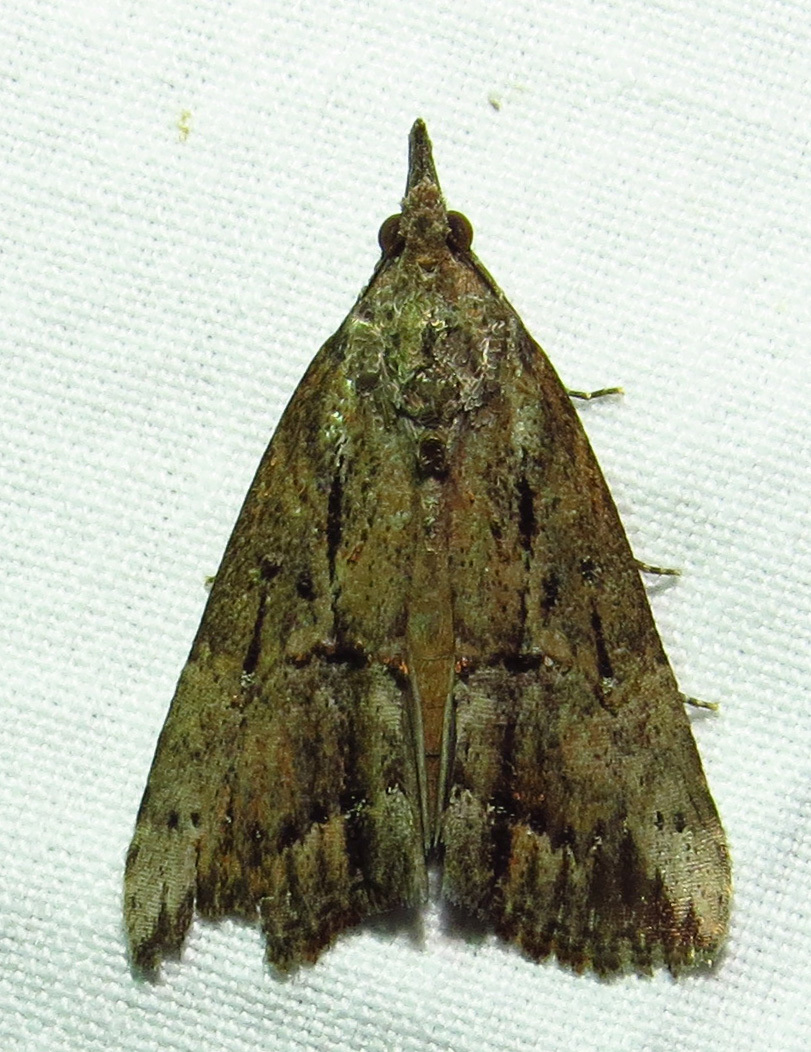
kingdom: Animalia
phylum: Arthropoda
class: Insecta
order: Lepidoptera
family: Erebidae
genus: Hypena
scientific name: Hypena scabra
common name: Green cloverworm
